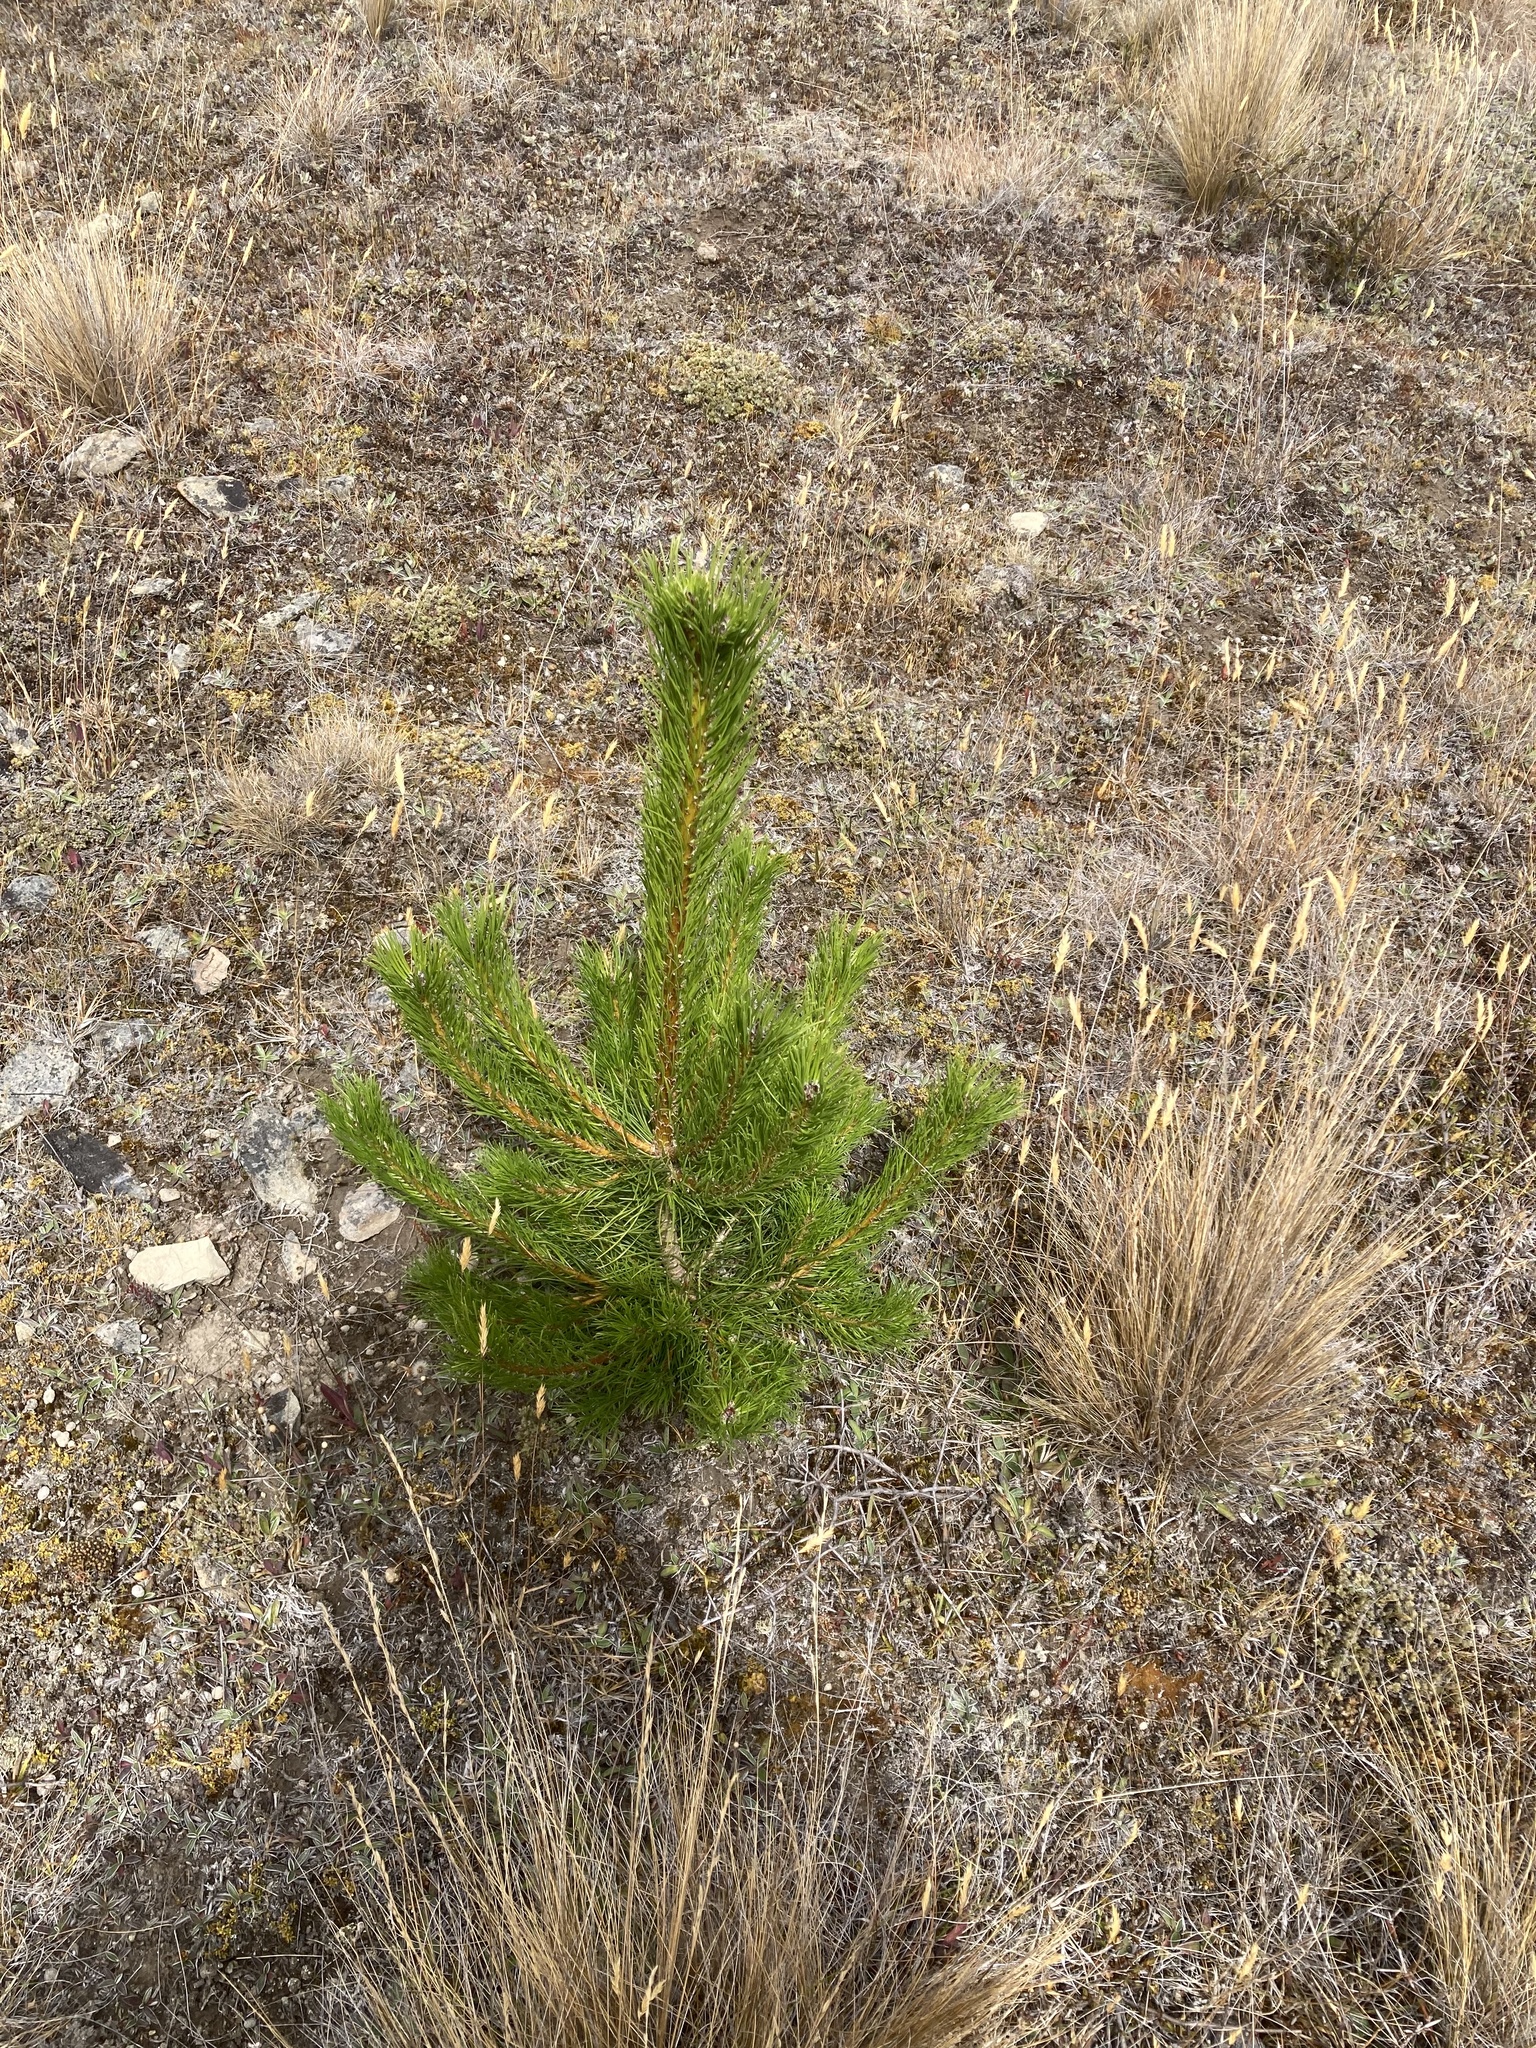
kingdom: Plantae
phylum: Tracheophyta
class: Pinopsida
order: Pinales
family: Pinaceae
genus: Pinus
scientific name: Pinus contorta
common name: Lodgepole pine
